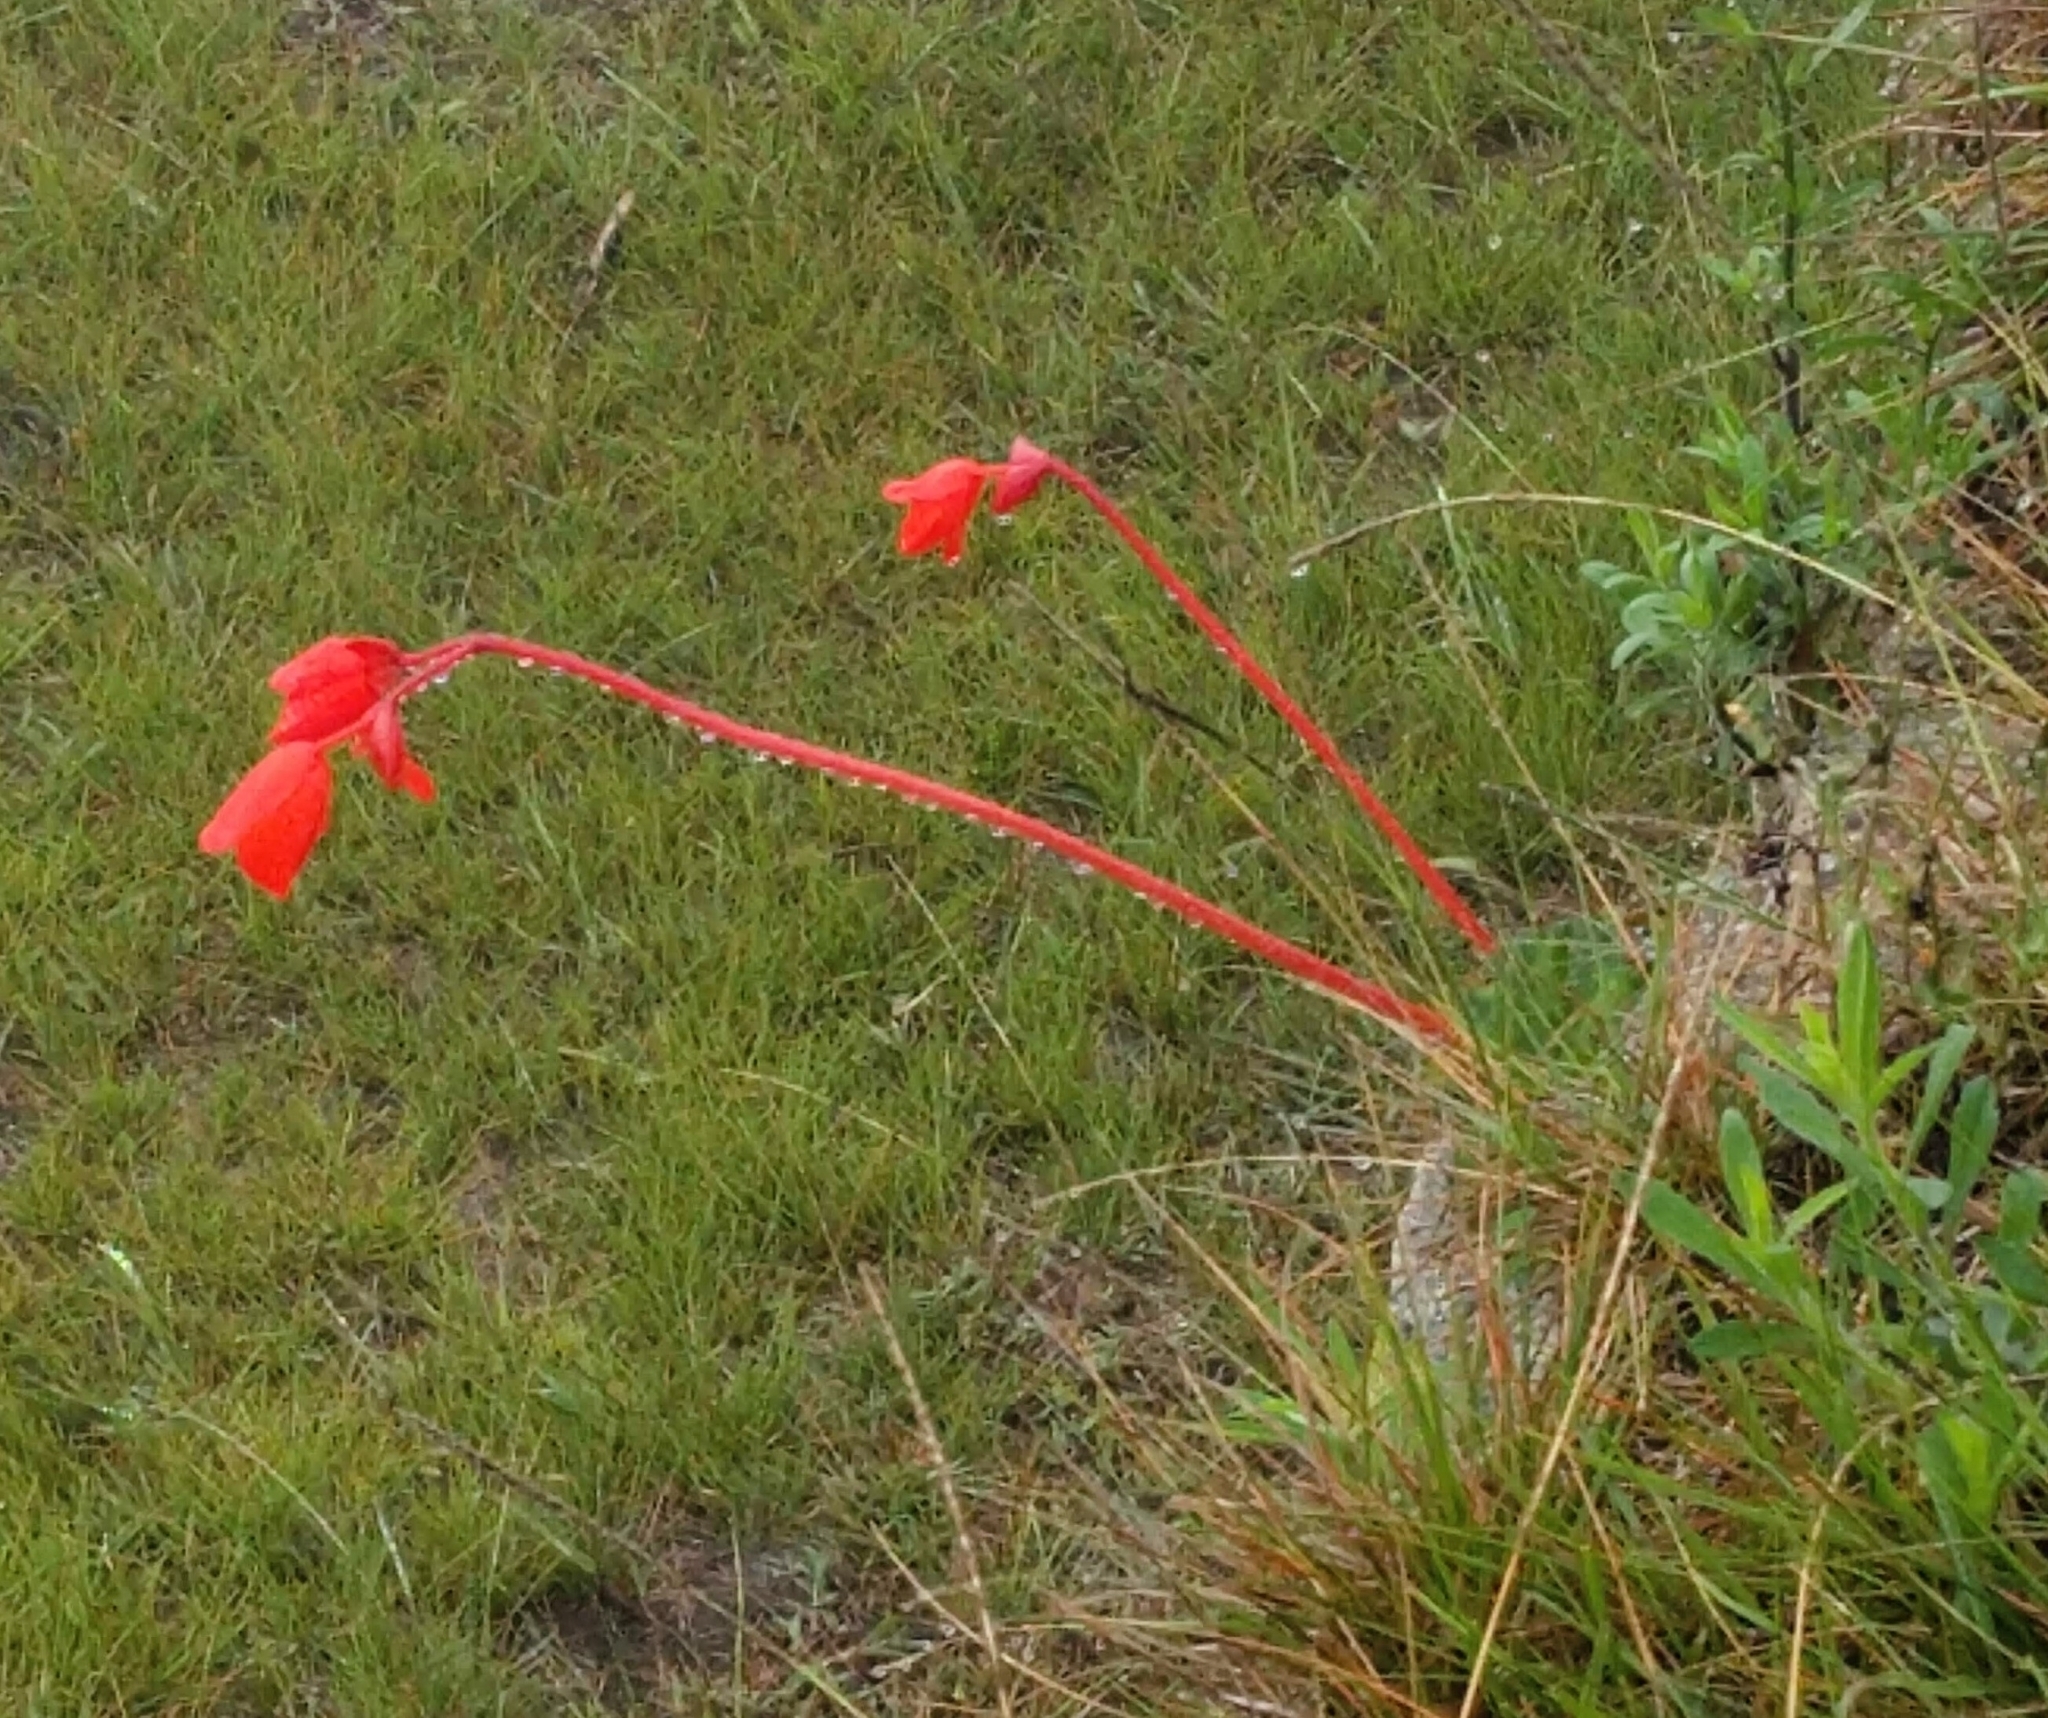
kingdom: Plantae
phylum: Tracheophyta
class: Magnoliopsida
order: Cucurbitales
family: Begoniaceae
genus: Begonia
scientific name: Begonia veitchii
